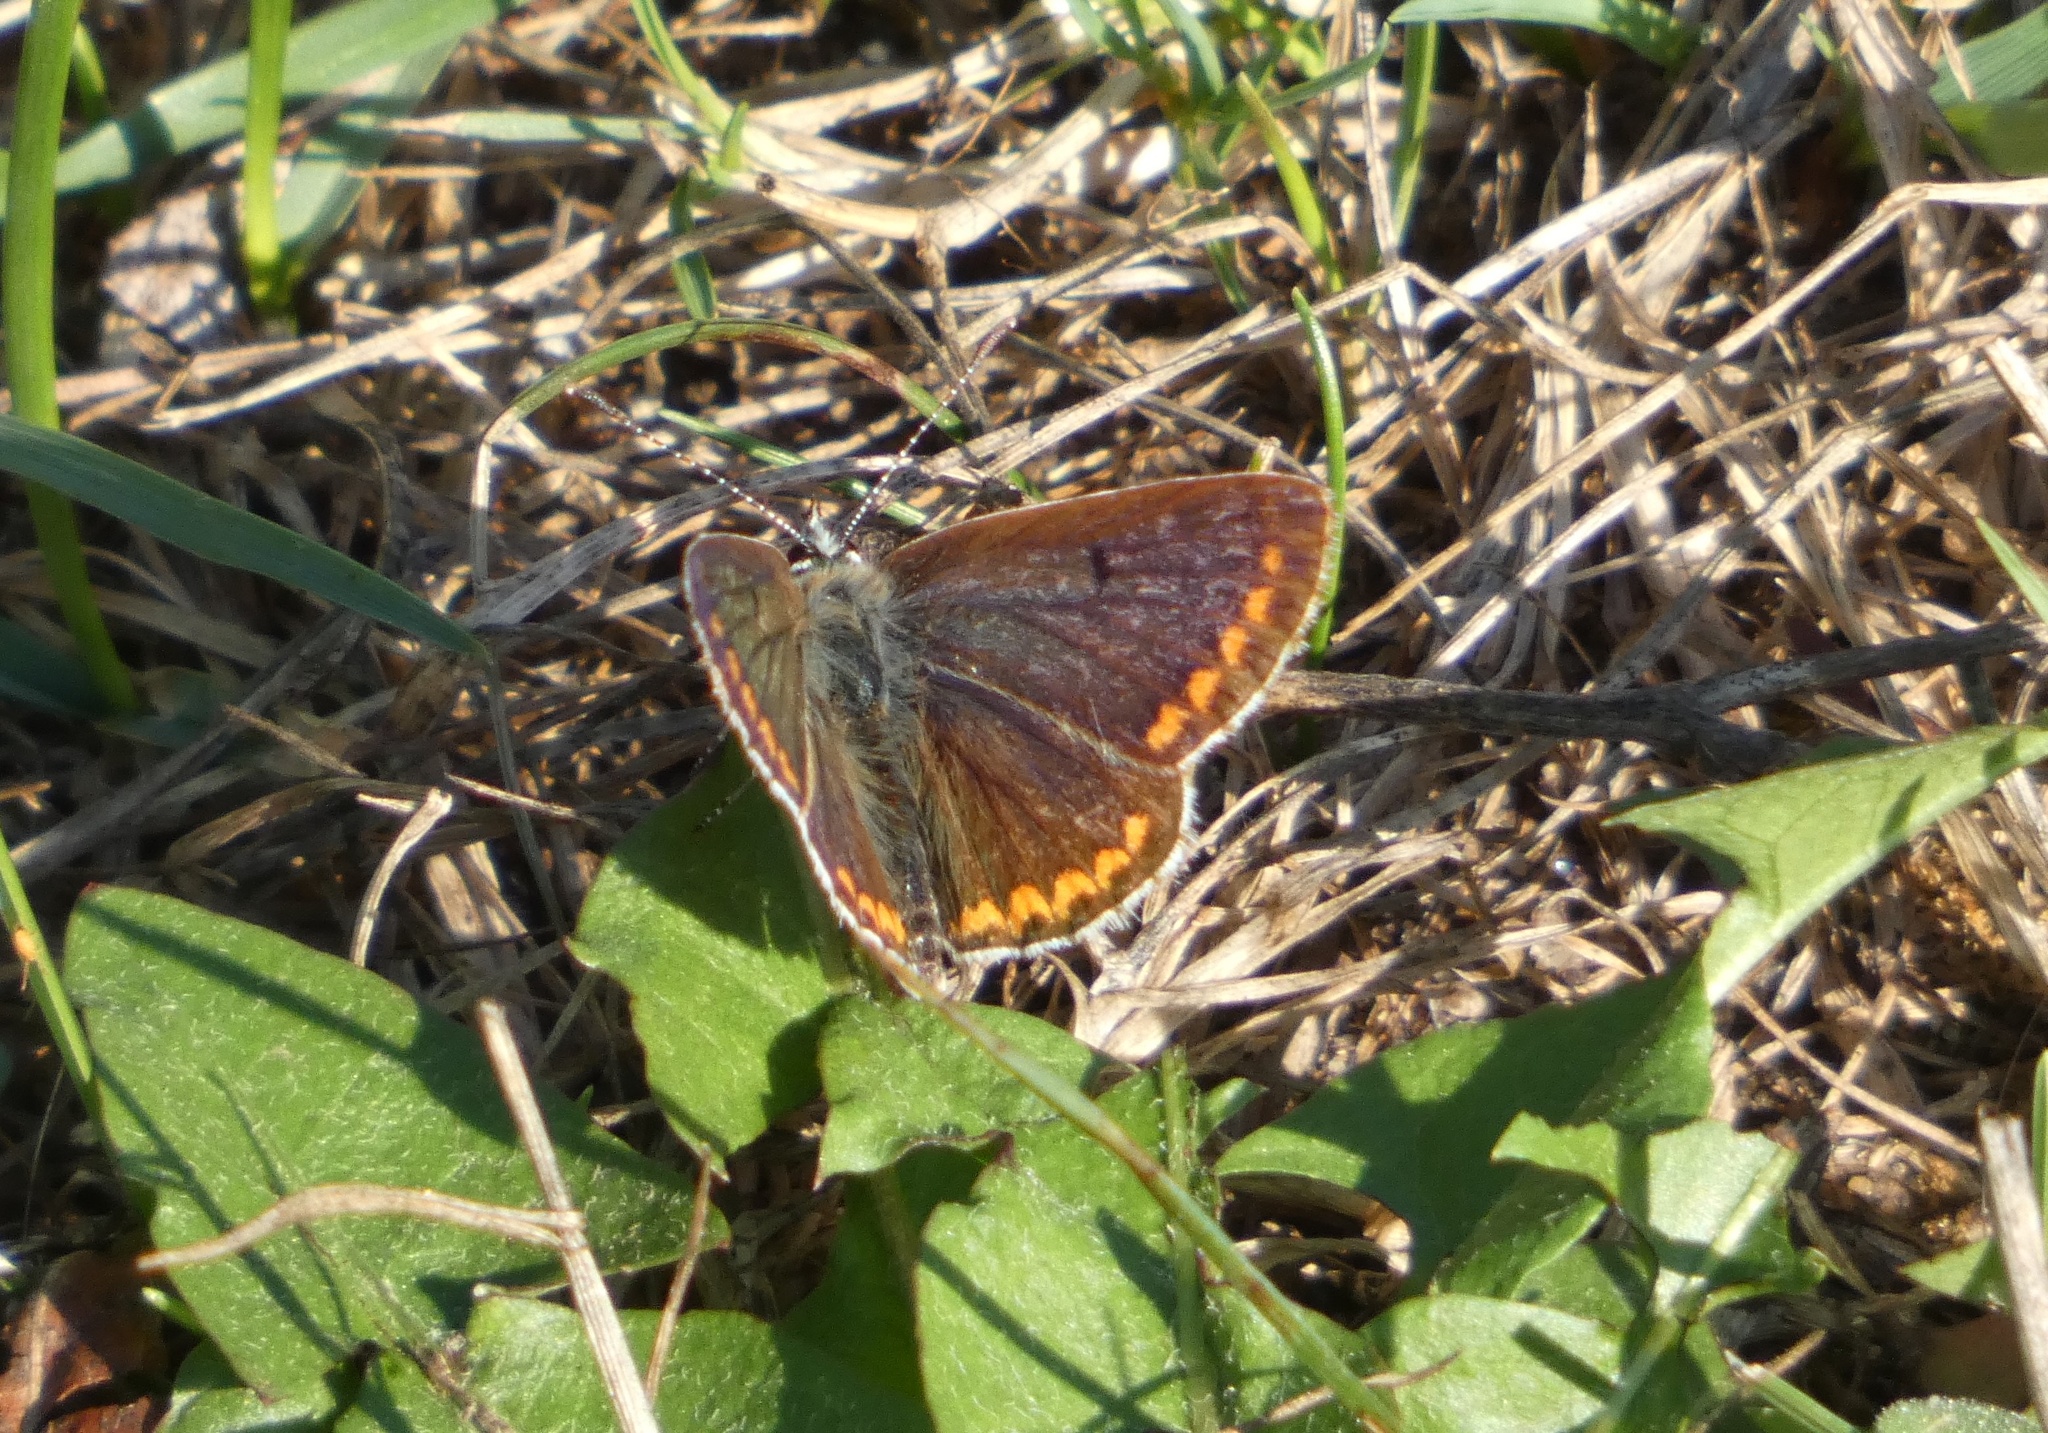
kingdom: Animalia
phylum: Arthropoda
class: Insecta
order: Lepidoptera
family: Lycaenidae
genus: Aricia
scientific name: Aricia agestis
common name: Brown argus
